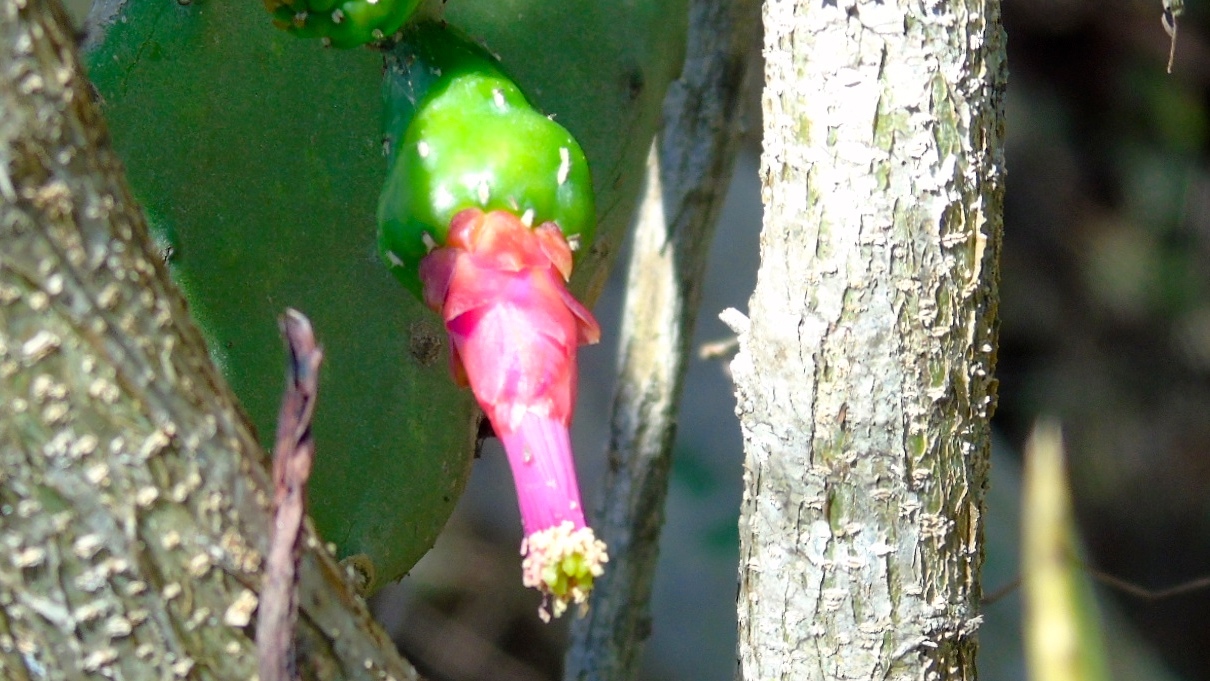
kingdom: Plantae
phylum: Tracheophyta
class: Magnoliopsida
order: Caryophyllales
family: Cactaceae
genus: Opuntia
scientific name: Opuntia cochenillifera
